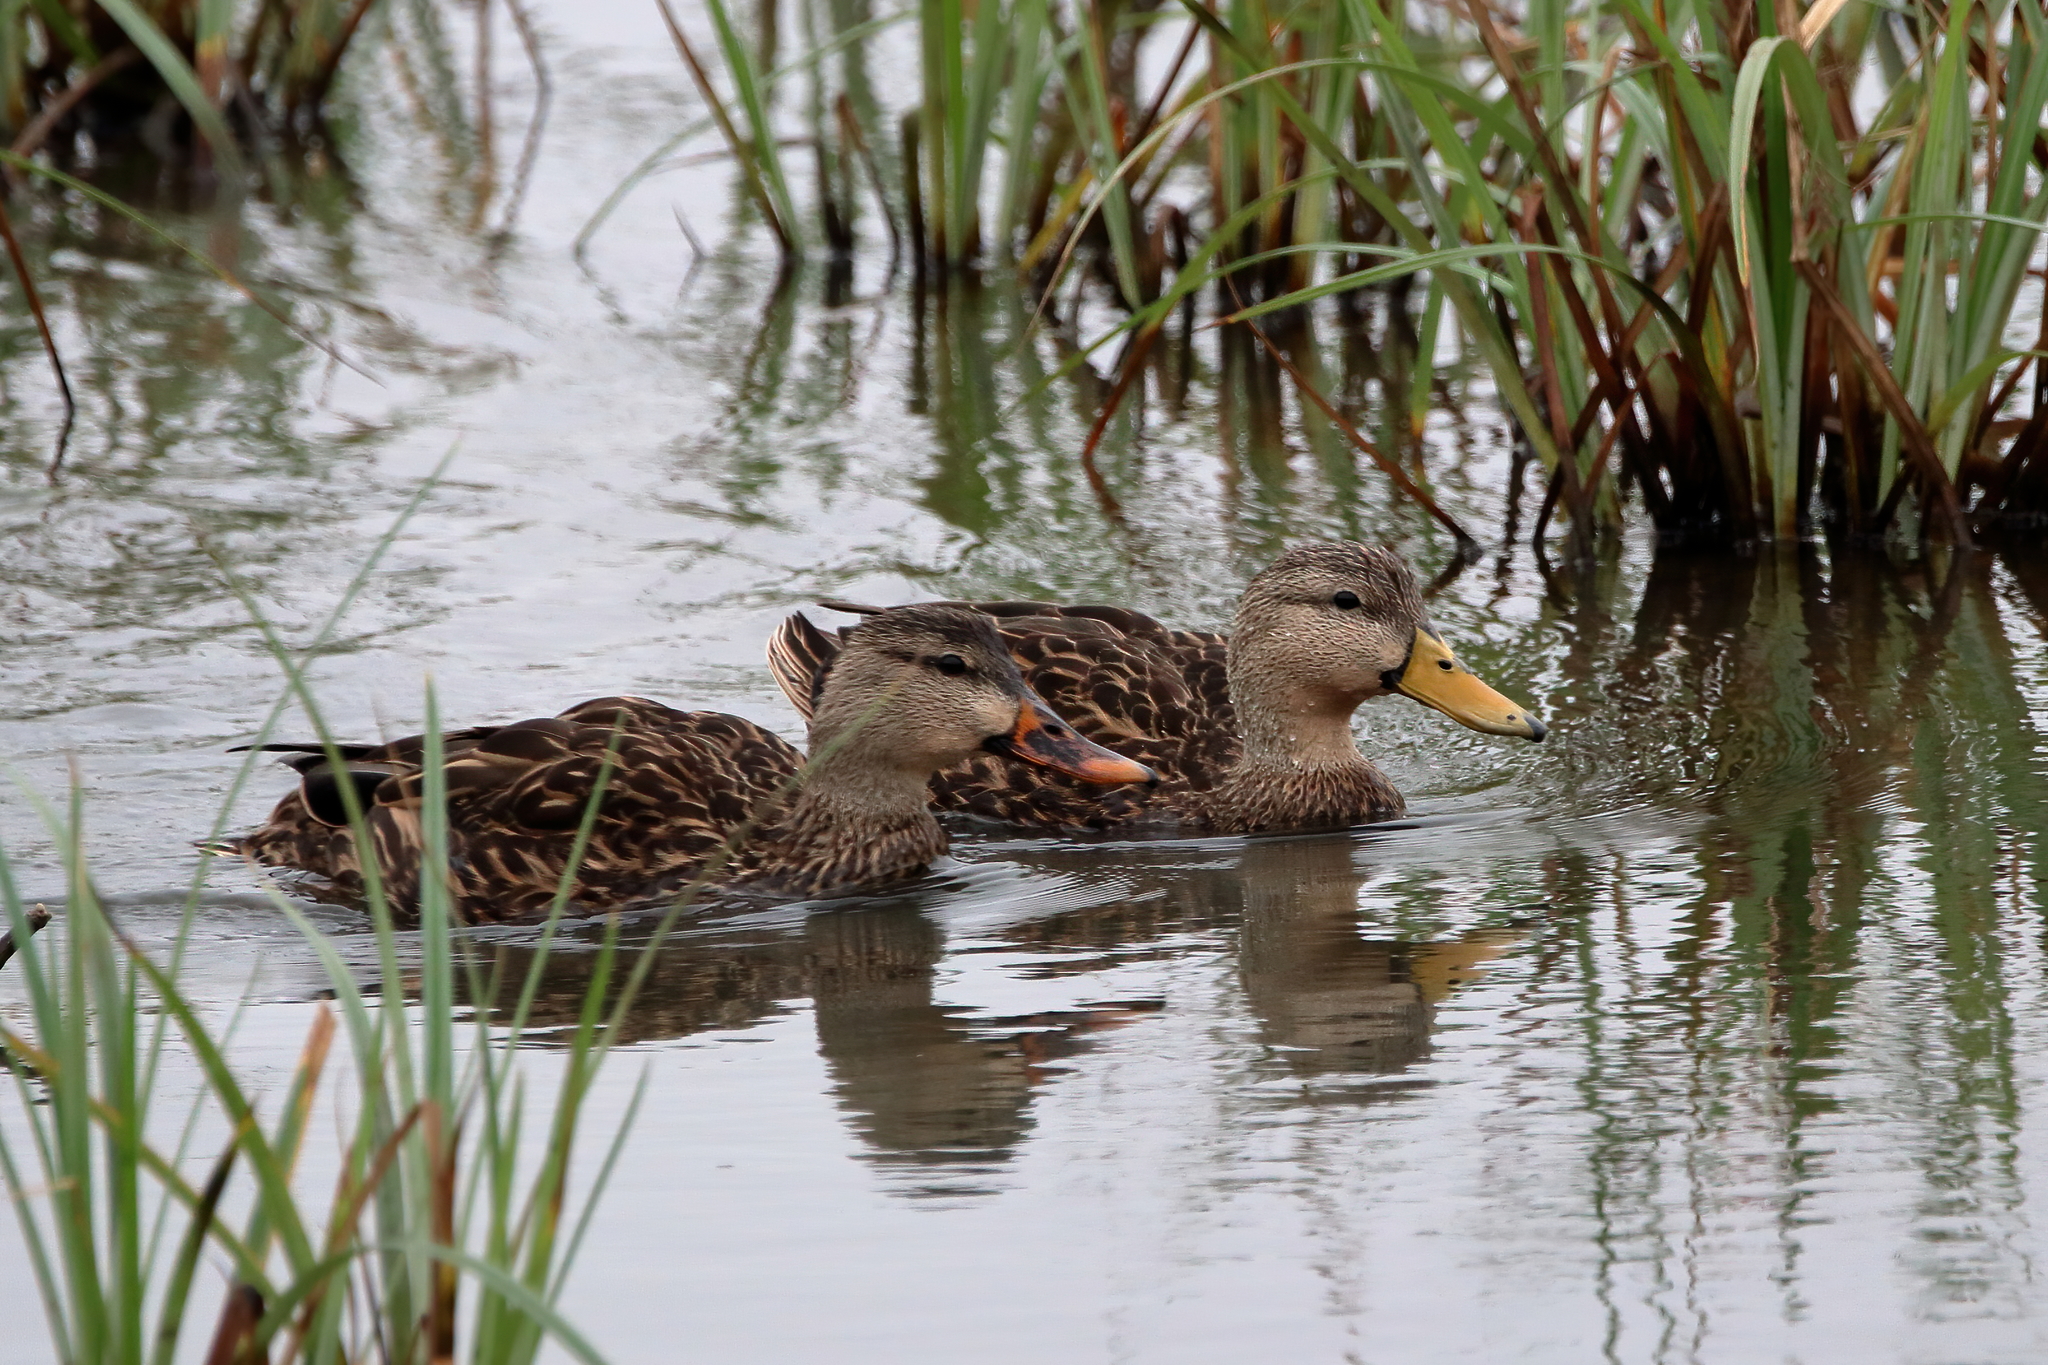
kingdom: Animalia
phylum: Chordata
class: Aves
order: Anseriformes
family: Anatidae
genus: Anas
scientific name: Anas fulvigula
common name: Mottled duck
